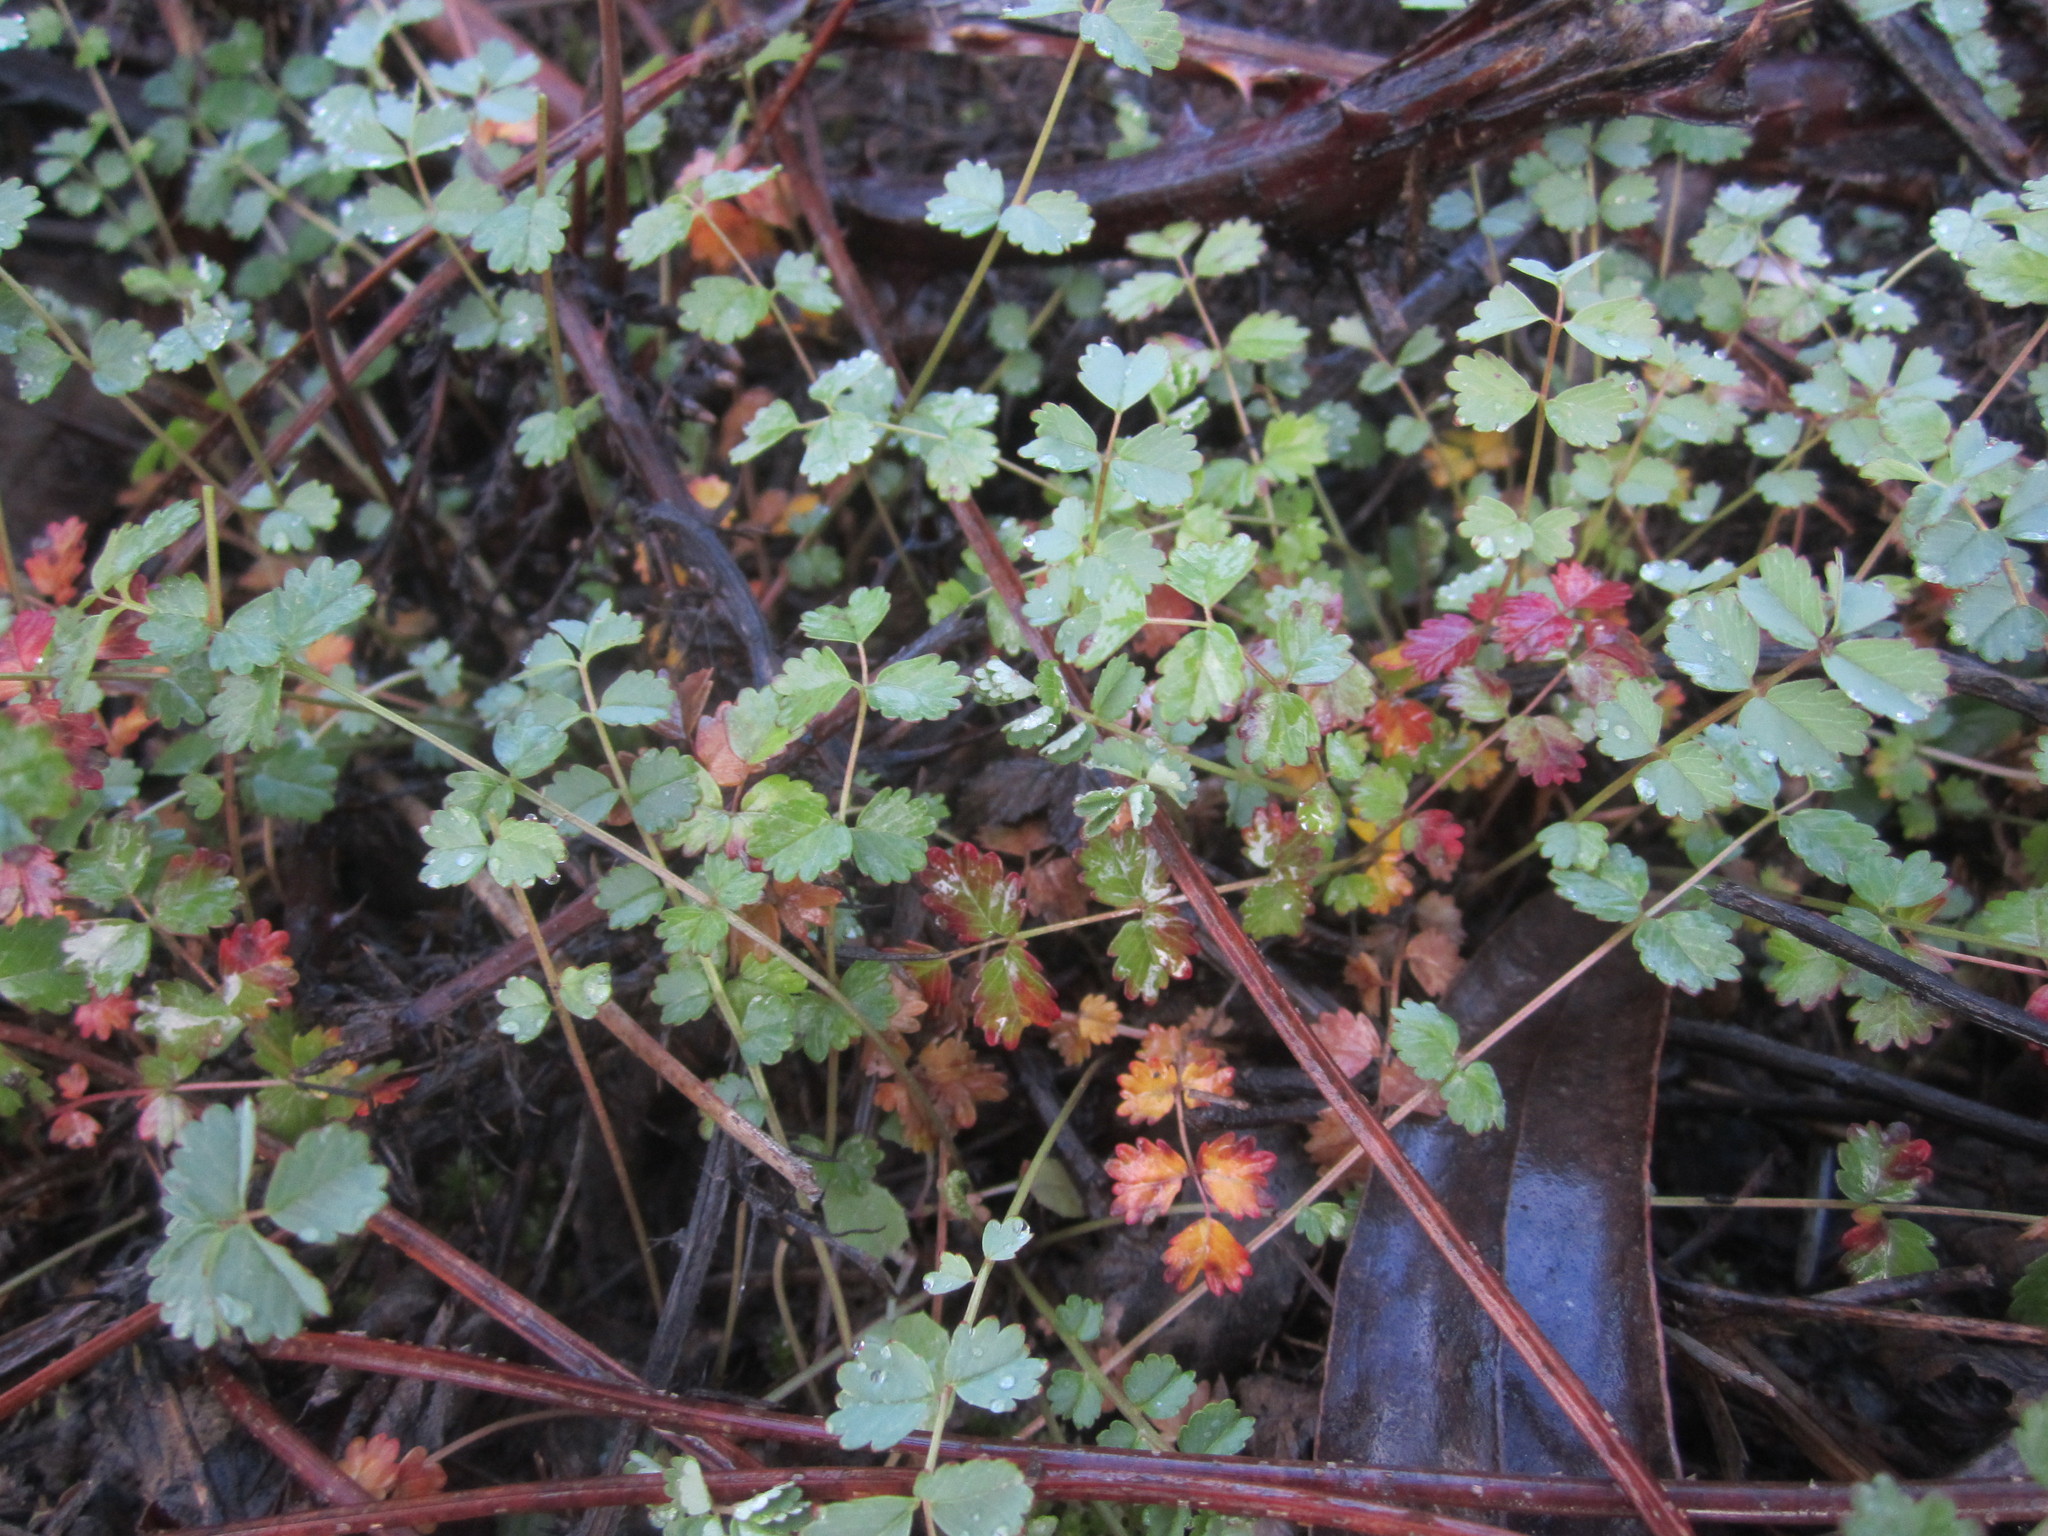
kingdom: Plantae
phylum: Tracheophyta
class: Magnoliopsida
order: Rosales
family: Rosaceae
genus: Poterium
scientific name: Poterium
